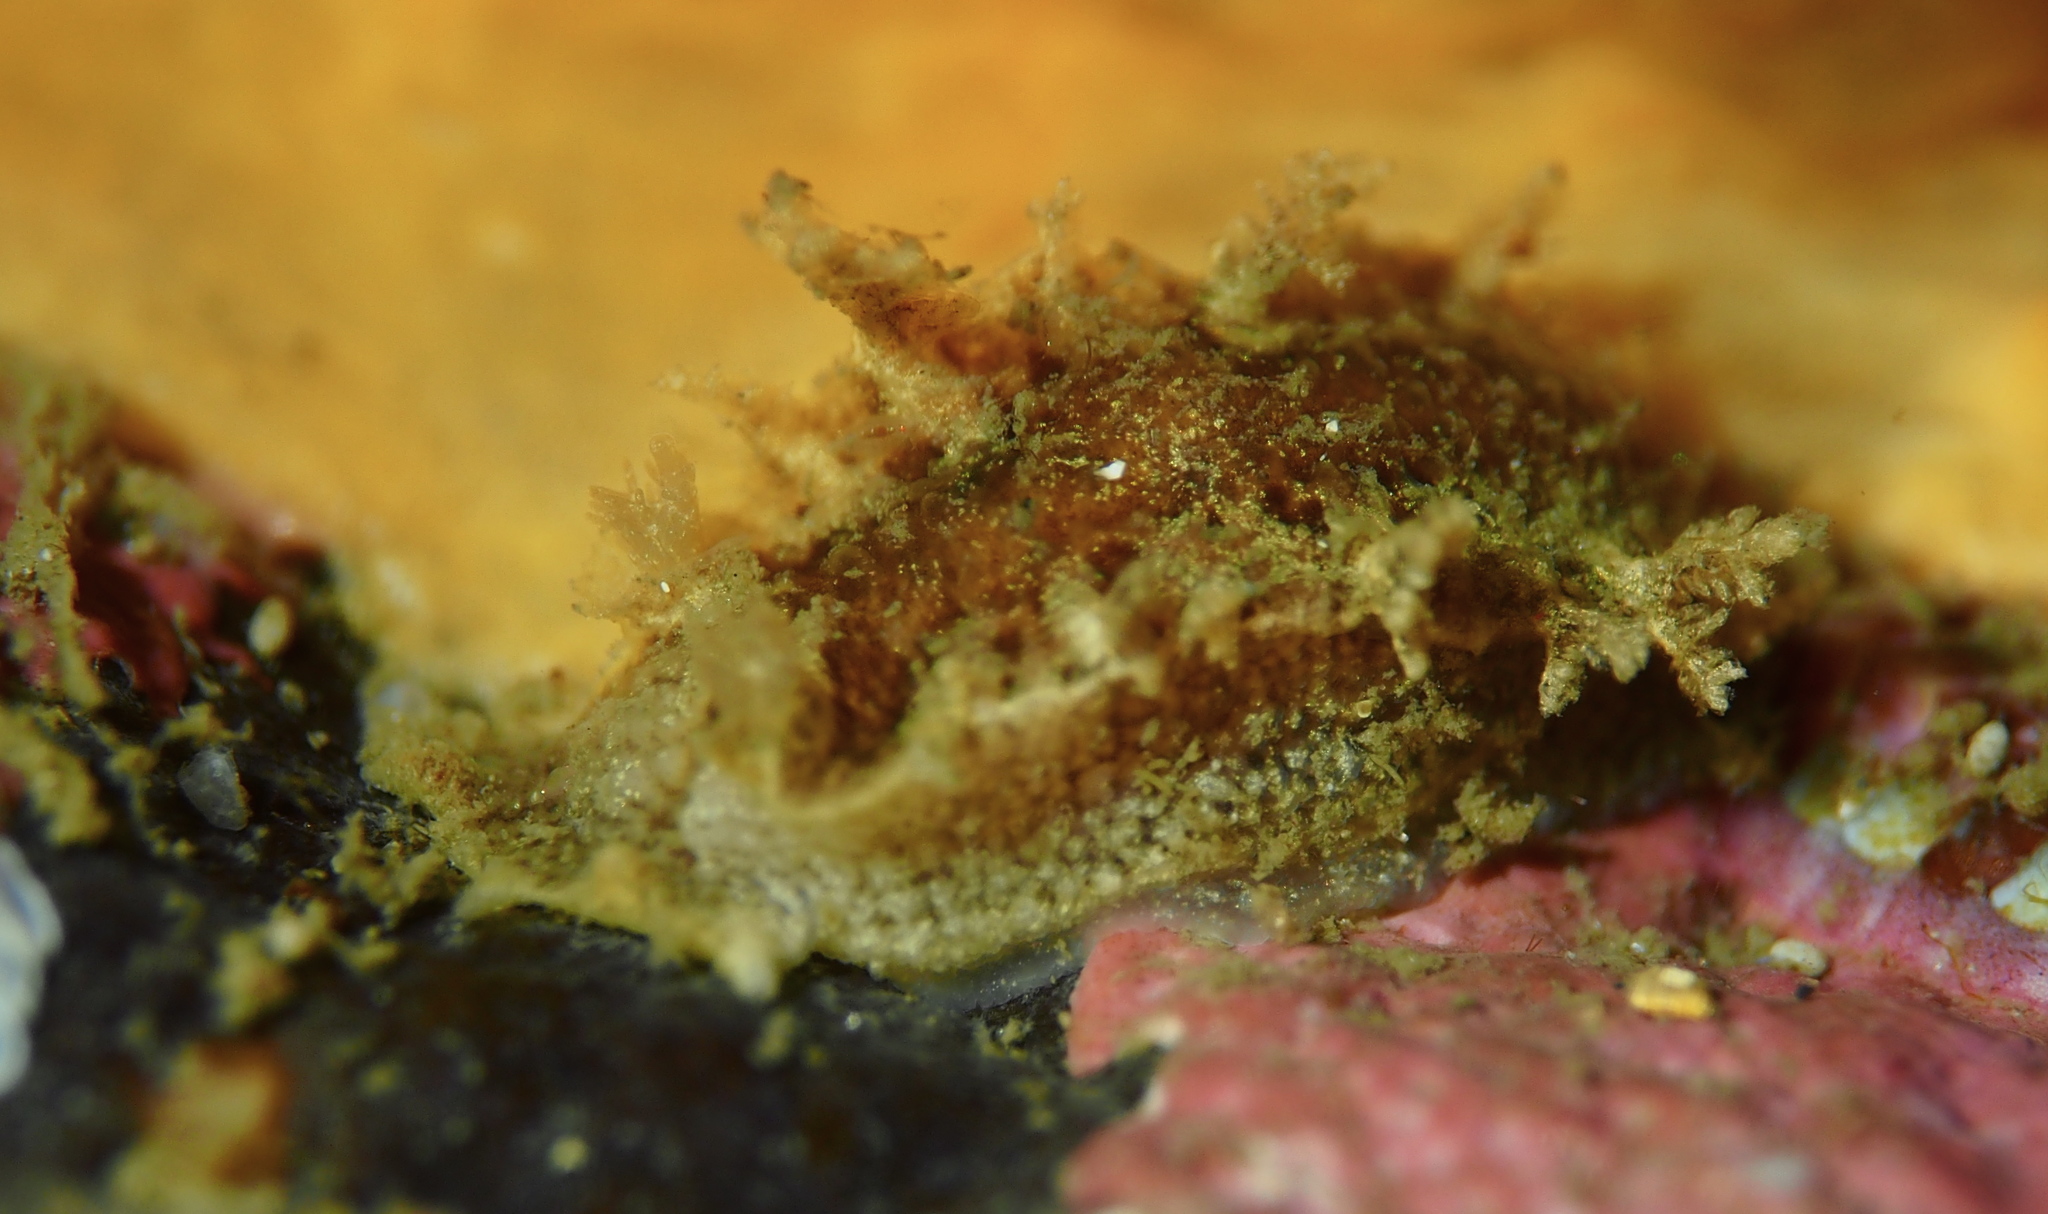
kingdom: Animalia
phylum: Mollusca
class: Gastropoda
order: Nudibranchia
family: Tritoniidae
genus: Duvaucelia
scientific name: Duvaucelia plebeia
